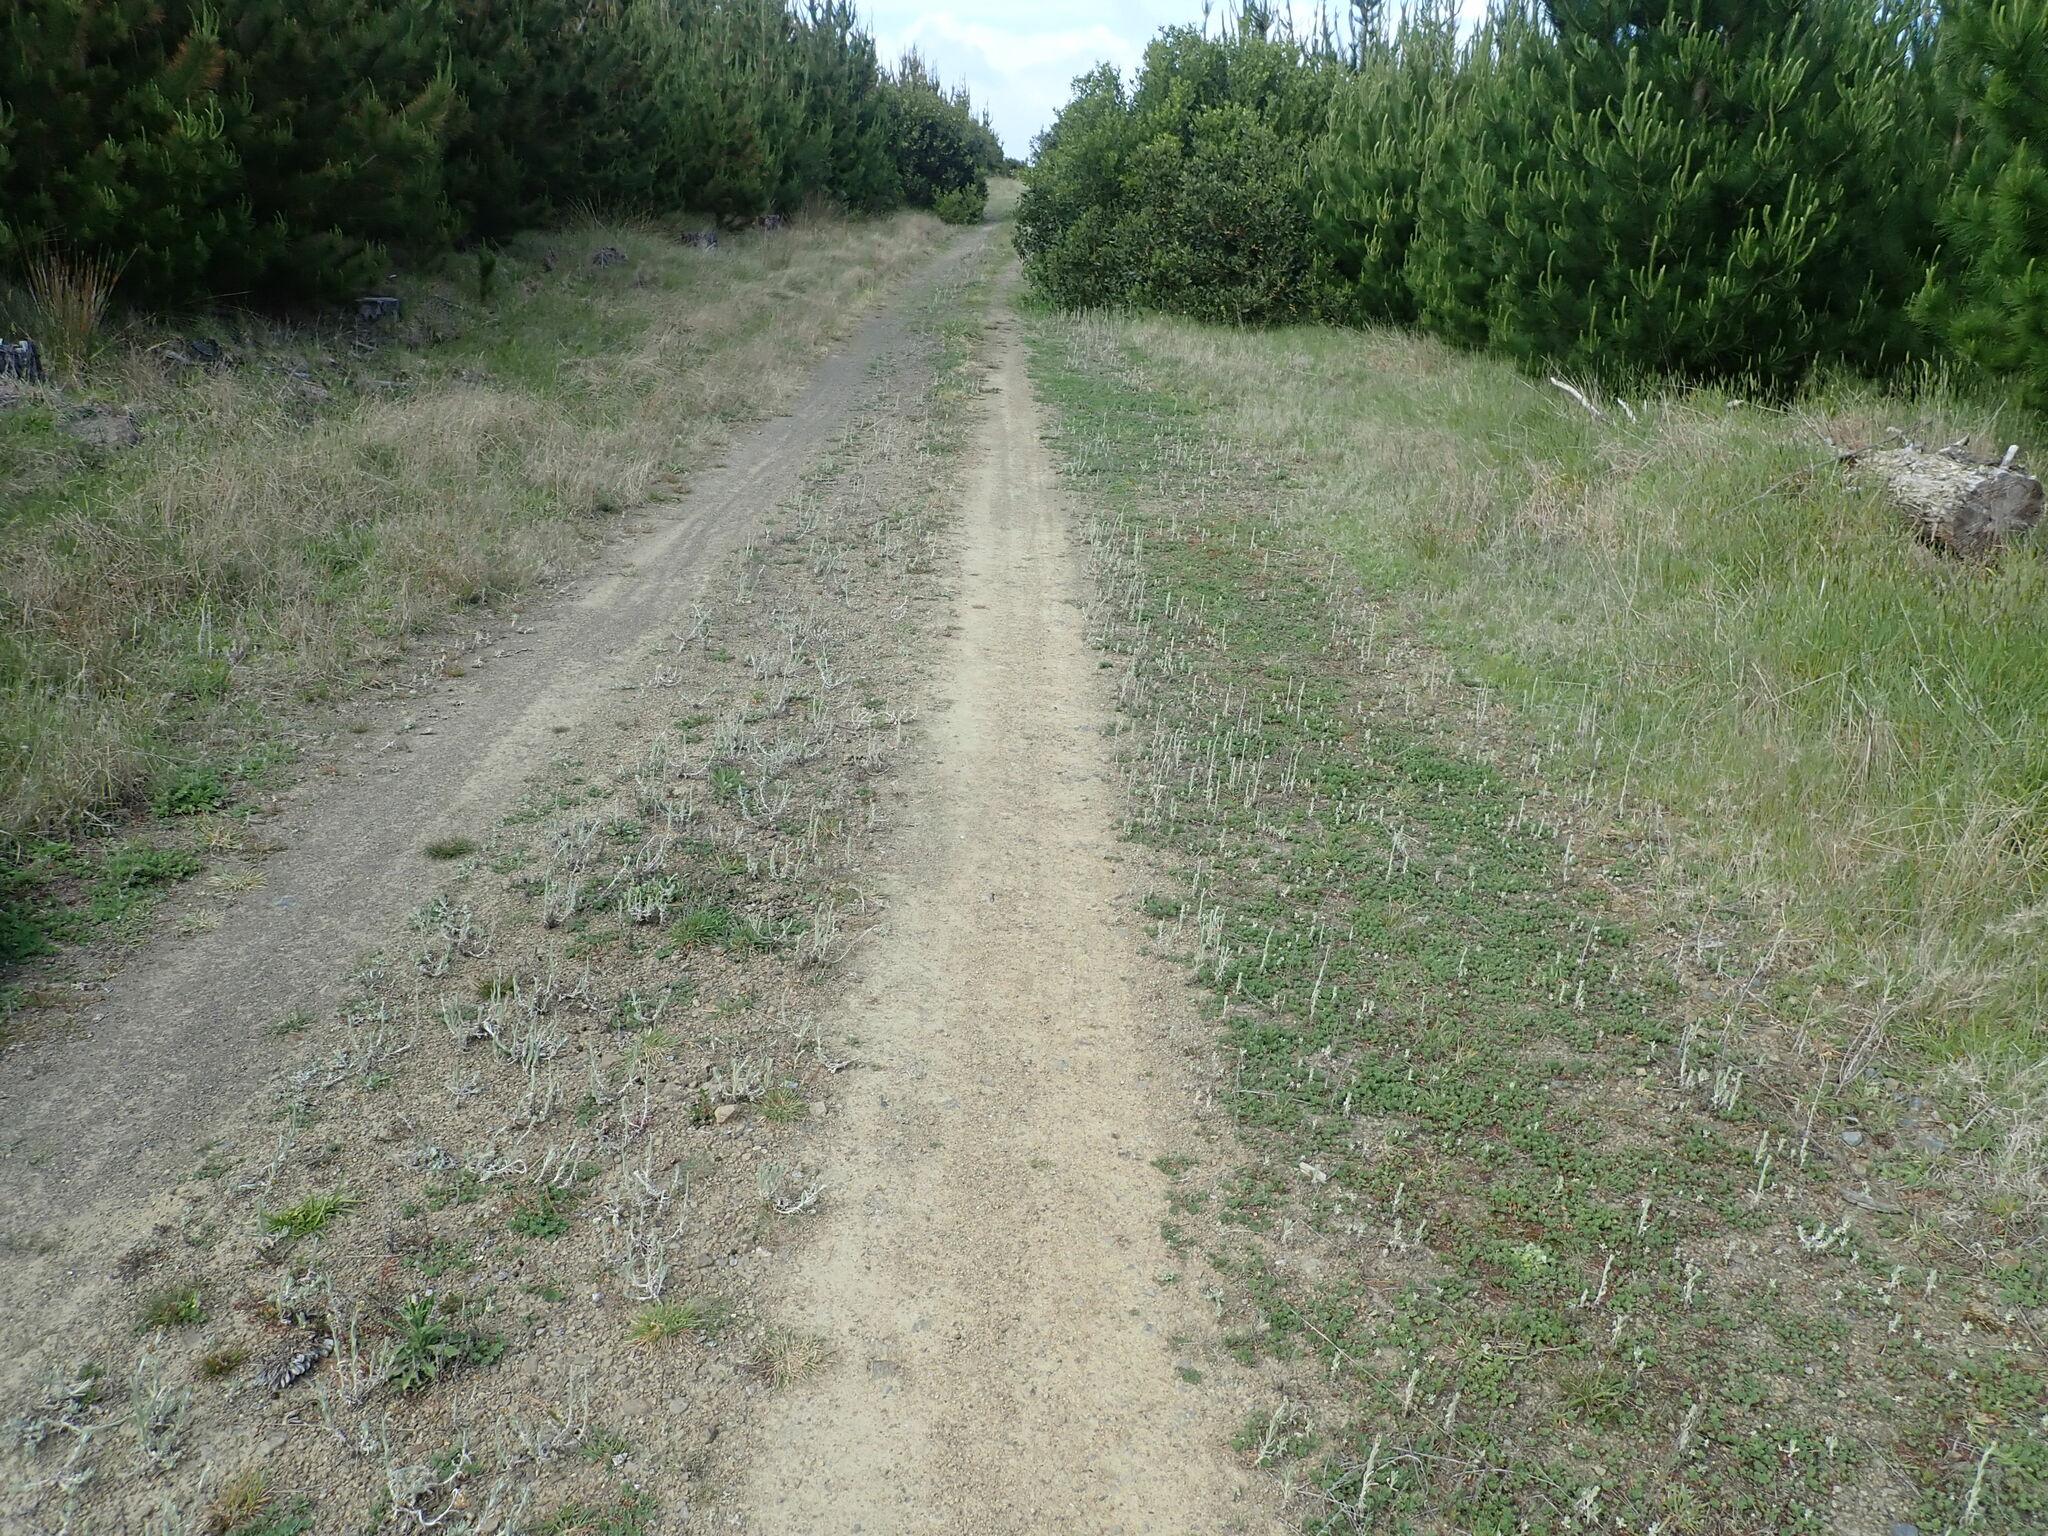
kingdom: Plantae
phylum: Tracheophyta
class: Magnoliopsida
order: Asterales
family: Asteraceae
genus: Pseudognaphalium
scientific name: Pseudognaphalium
